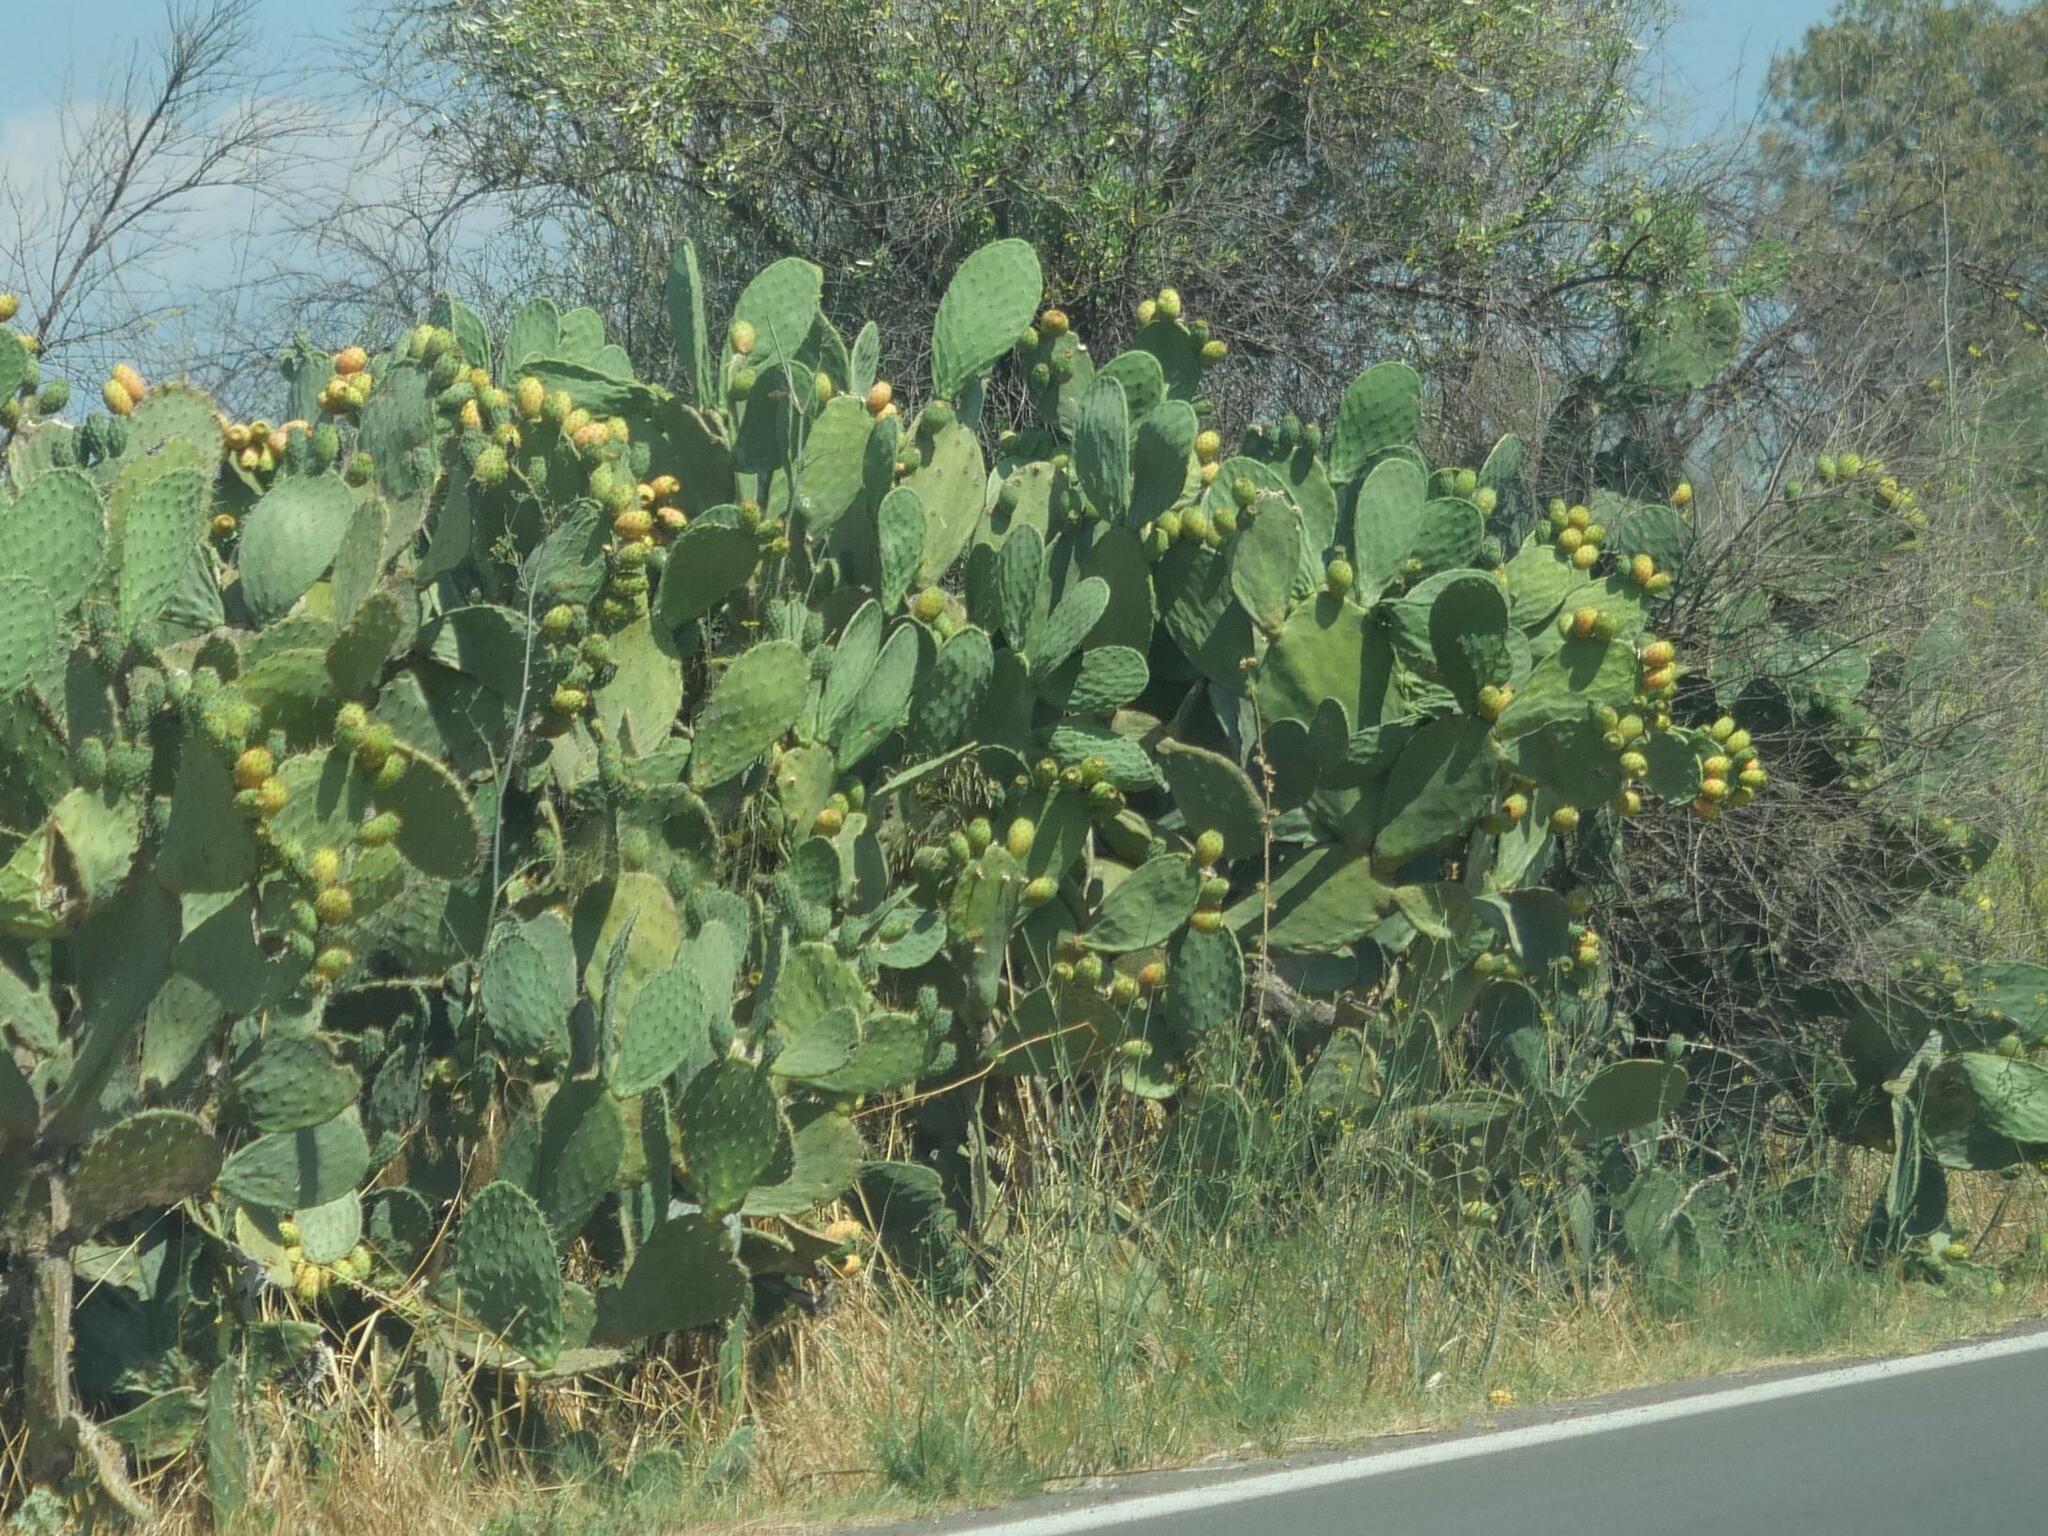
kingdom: Plantae
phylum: Tracheophyta
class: Magnoliopsida
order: Caryophyllales
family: Cactaceae
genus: Opuntia
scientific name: Opuntia ficus-indica
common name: Barbary fig
